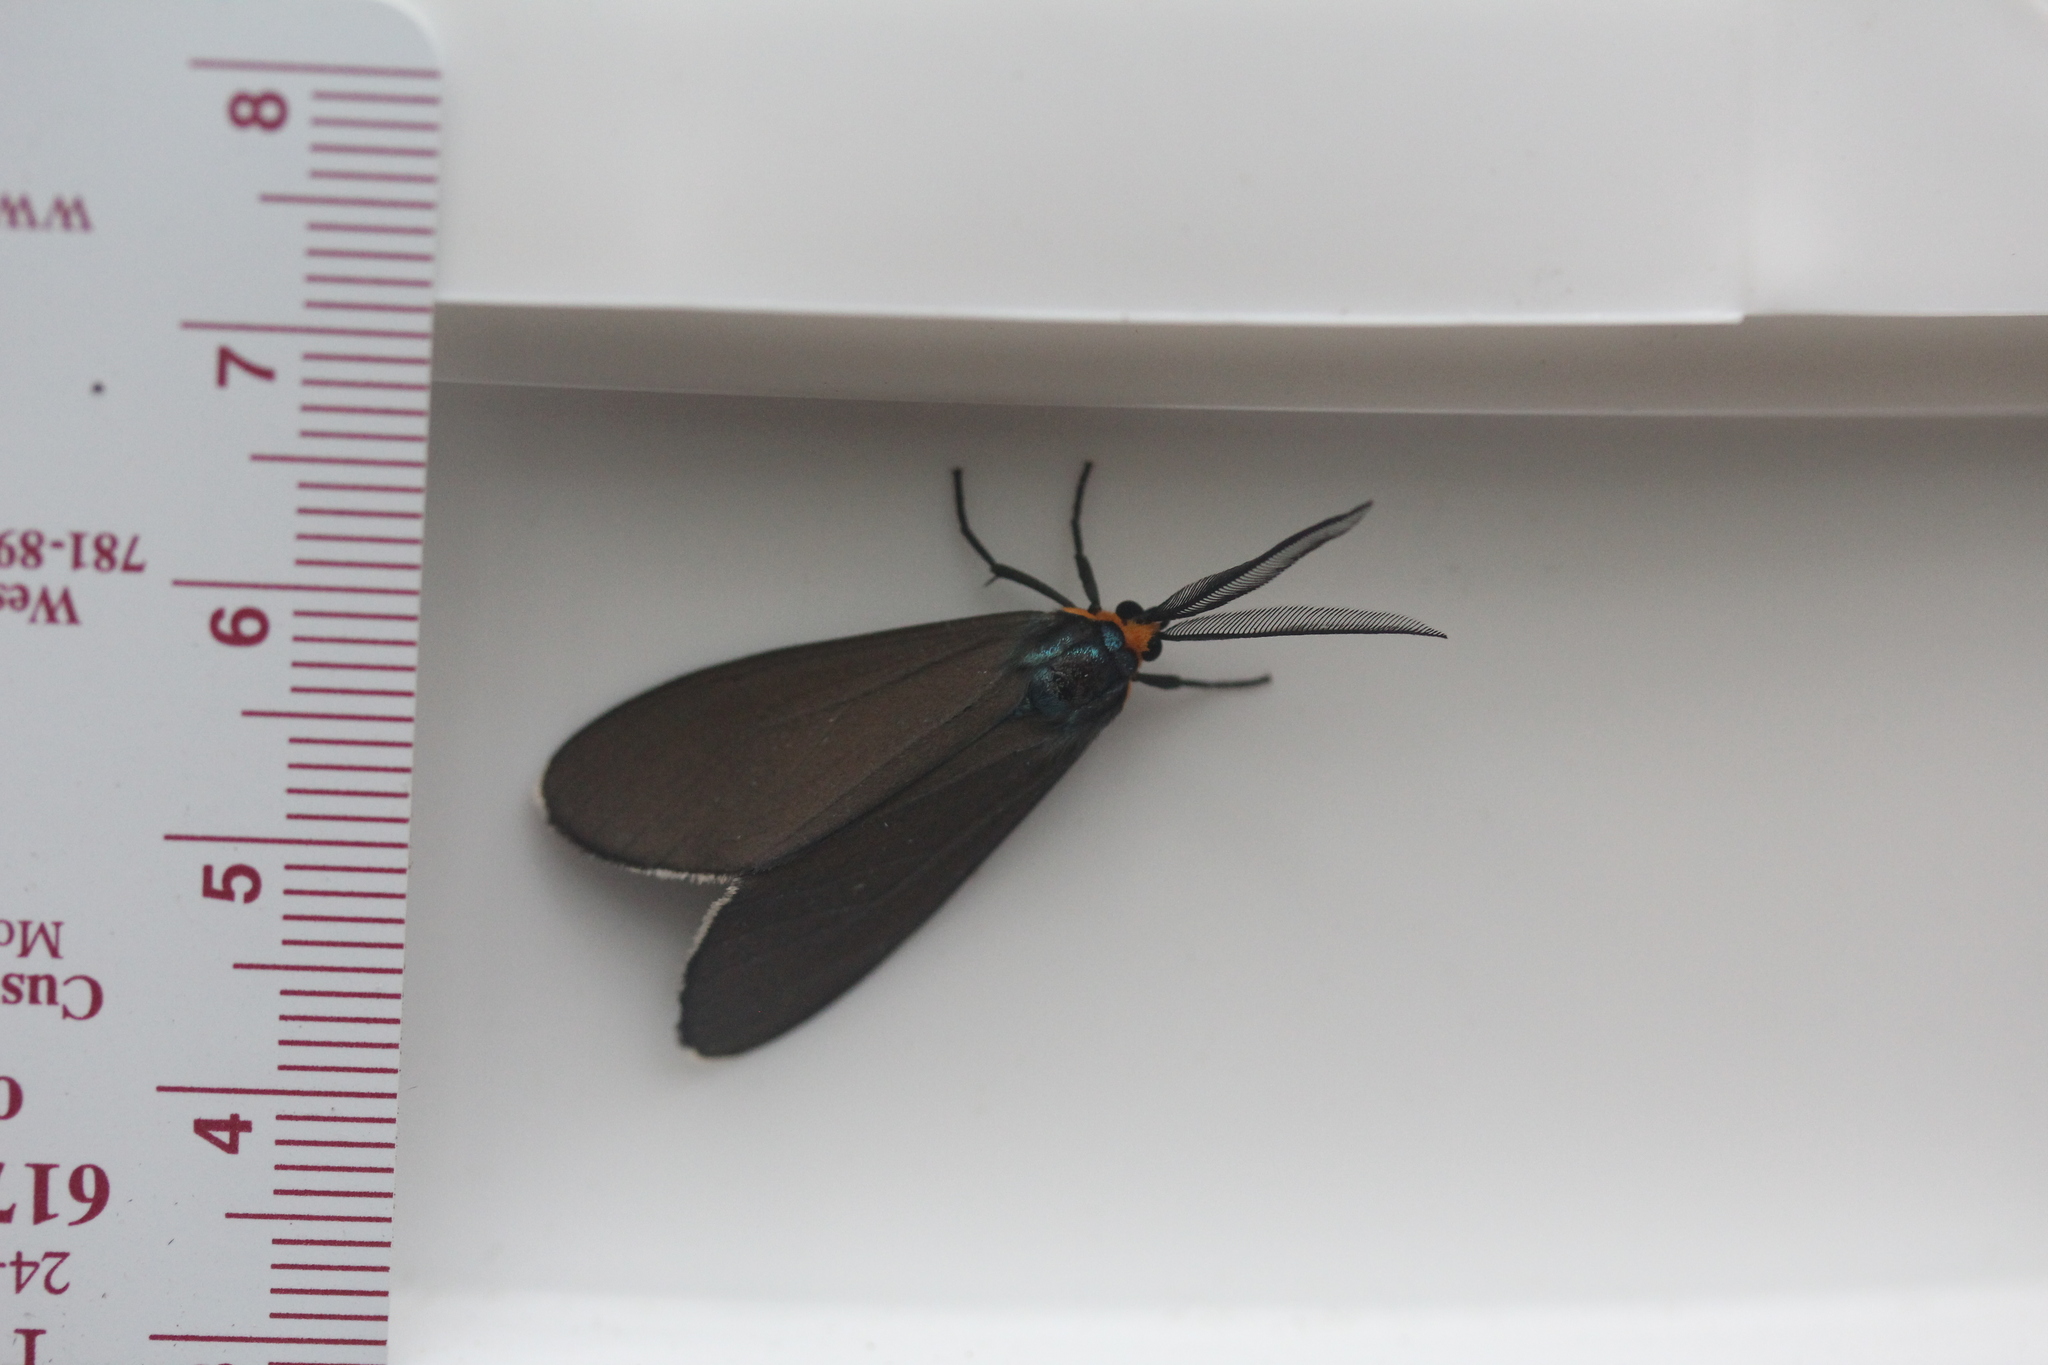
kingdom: Animalia
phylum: Arthropoda
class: Insecta
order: Lepidoptera
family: Erebidae
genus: Ctenucha
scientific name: Ctenucha virginica
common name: Virginia ctenucha moth
